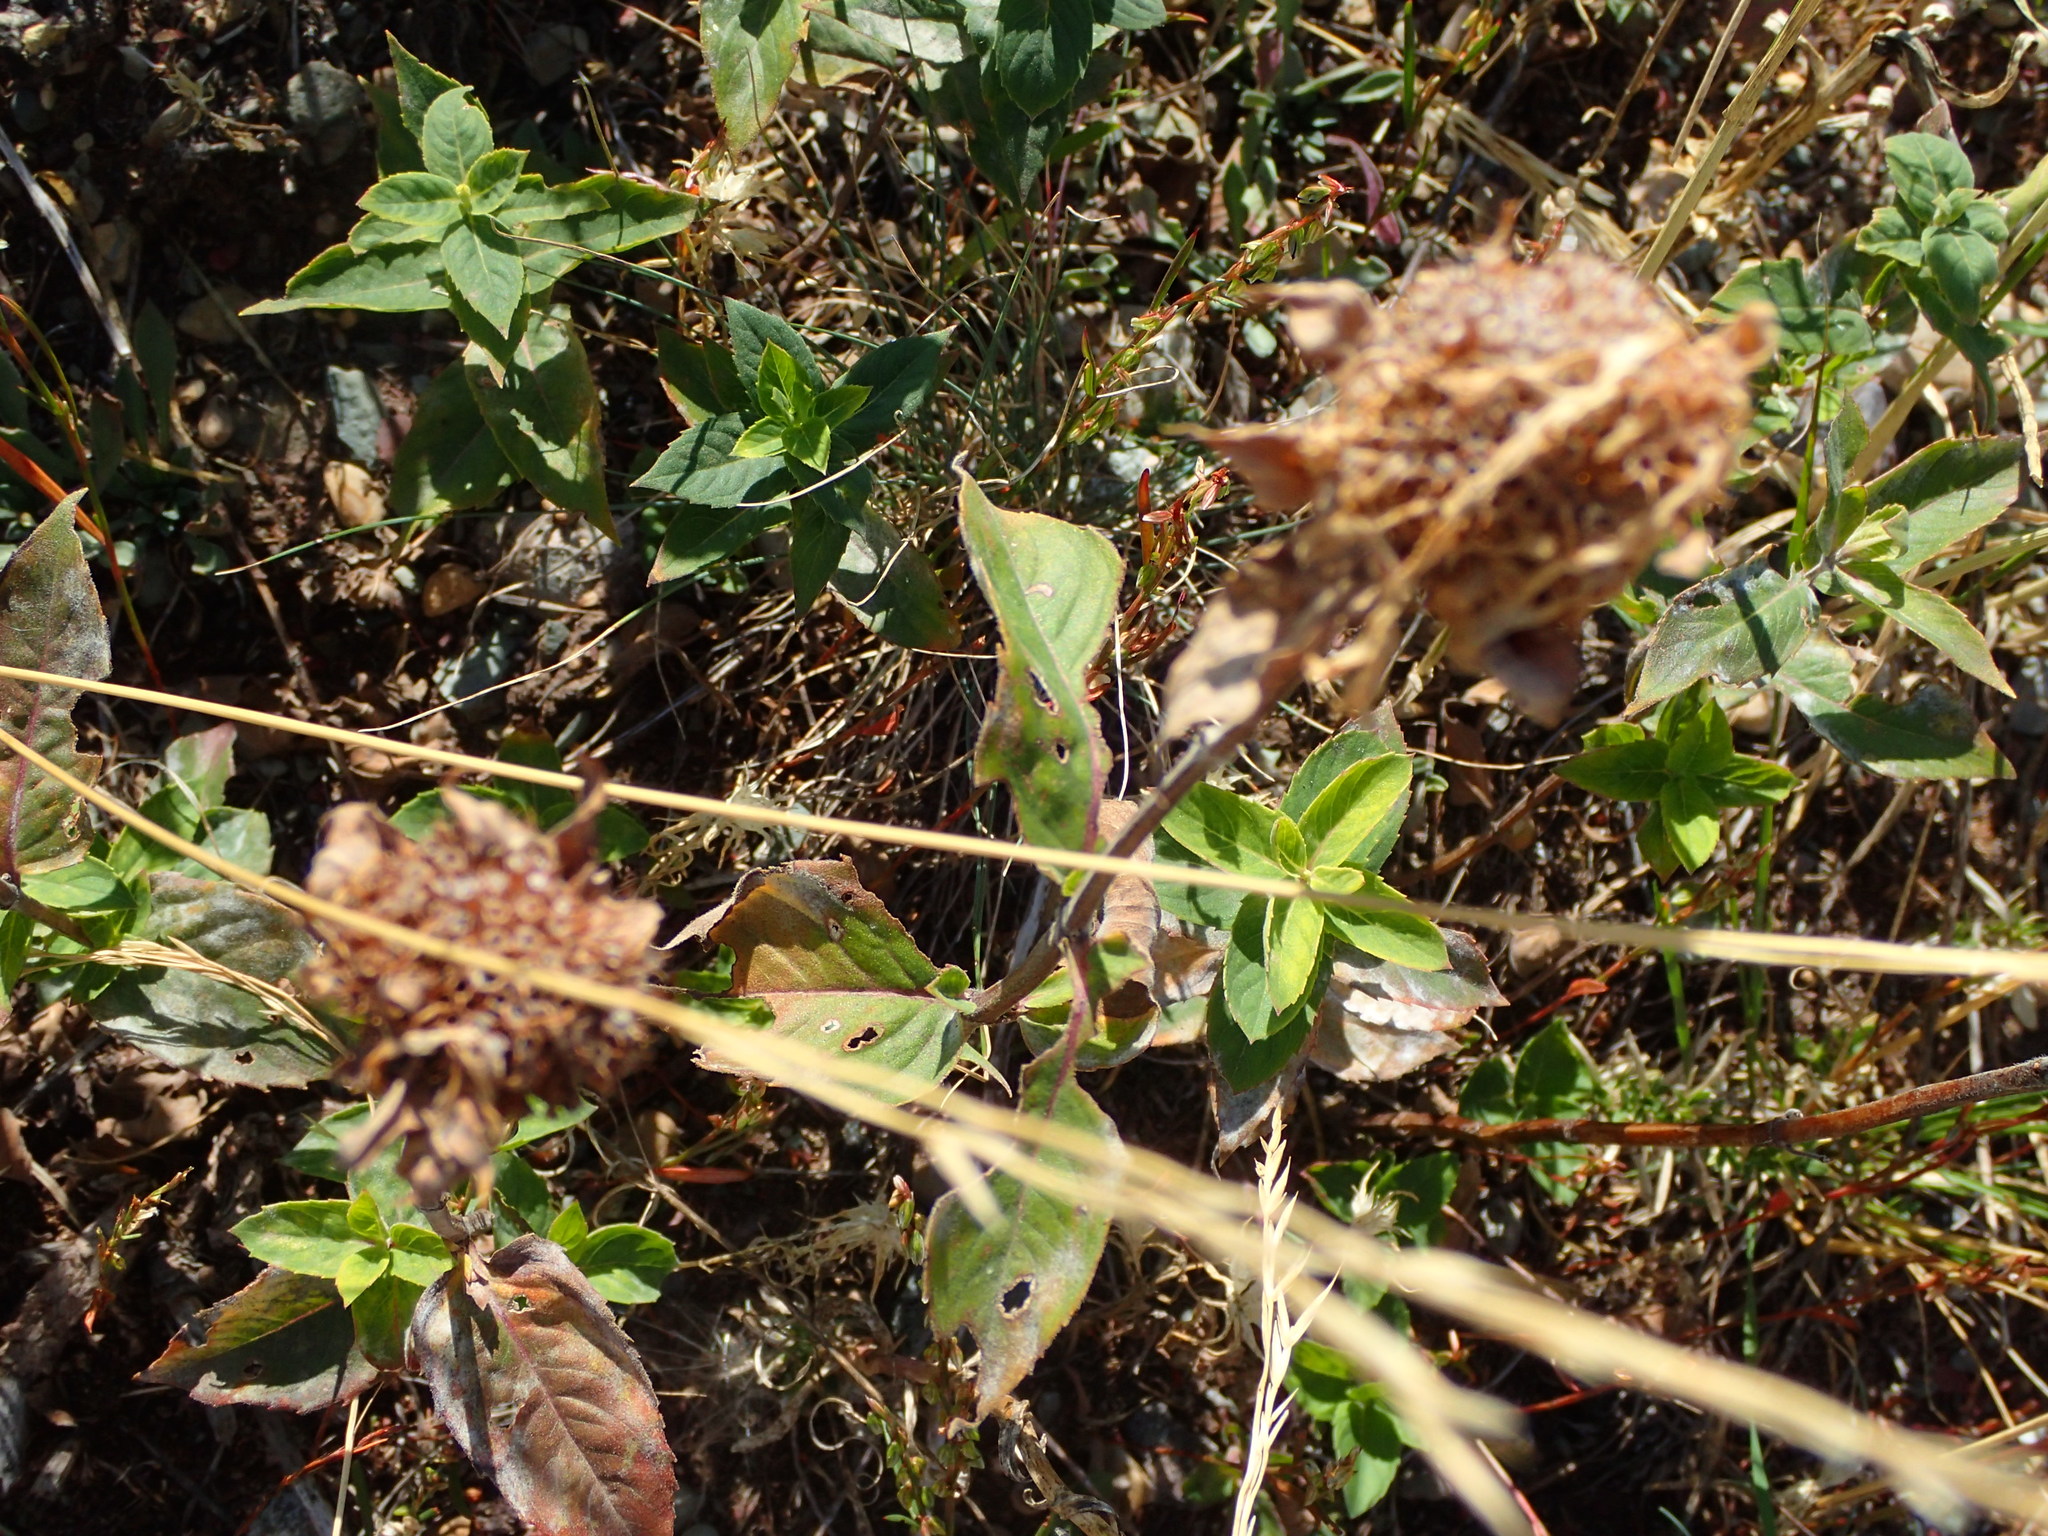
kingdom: Plantae
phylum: Tracheophyta
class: Magnoliopsida
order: Lamiales
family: Lamiaceae
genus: Monarda
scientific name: Monarda fistulosa
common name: Purple beebalm
